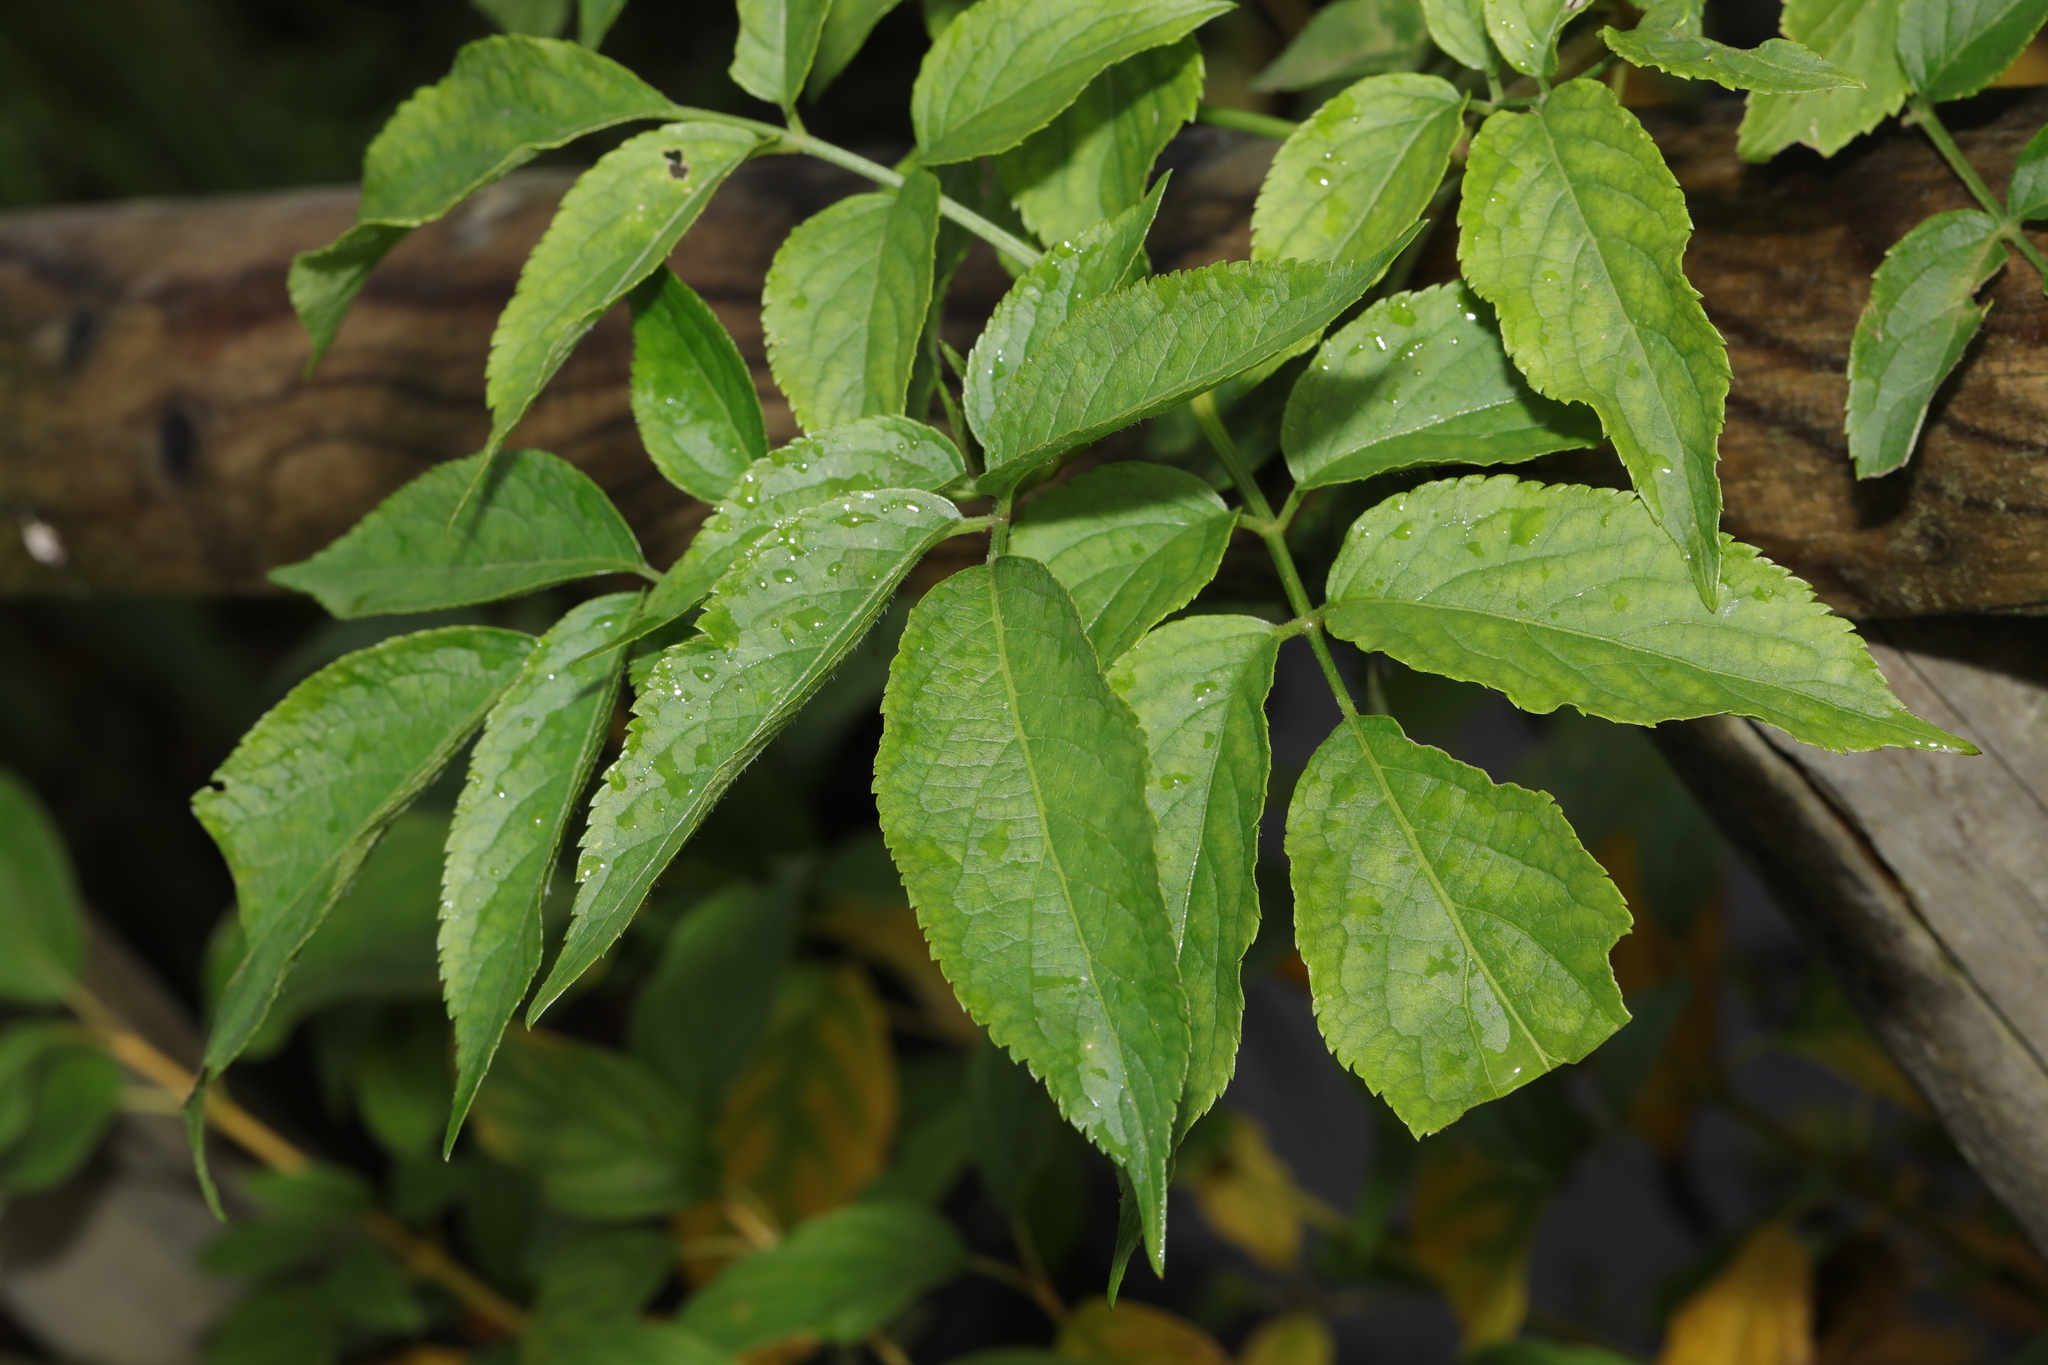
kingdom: Plantae
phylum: Tracheophyta
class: Magnoliopsida
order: Dipsacales
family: Viburnaceae
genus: Sambucus
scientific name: Sambucus nigra
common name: Elder
